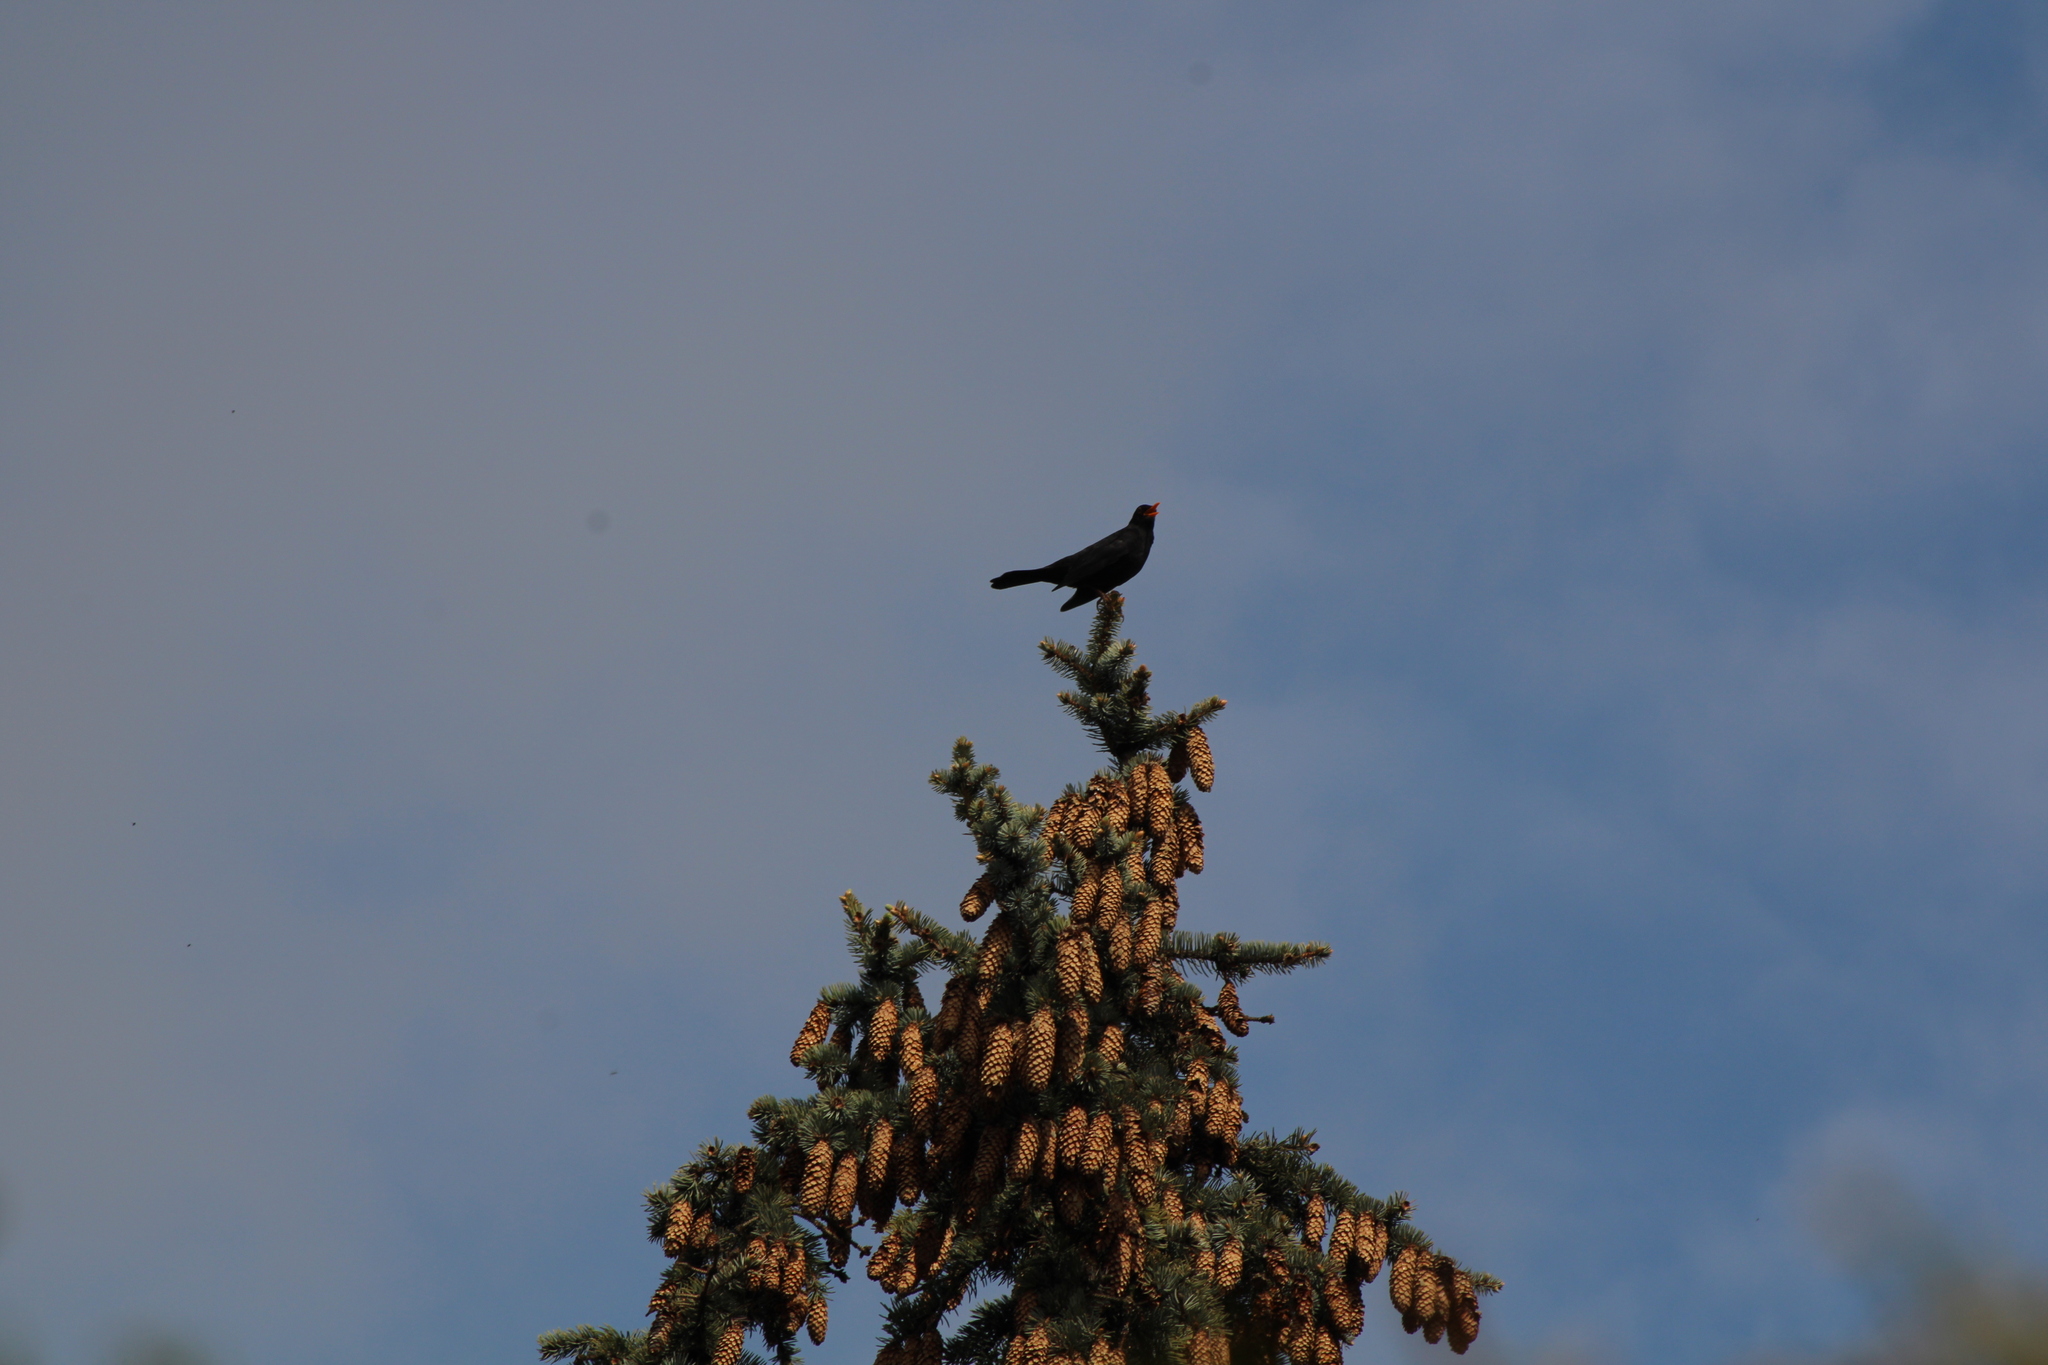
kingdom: Animalia
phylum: Chordata
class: Aves
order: Passeriformes
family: Turdidae
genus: Turdus
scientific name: Turdus merula
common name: Common blackbird
